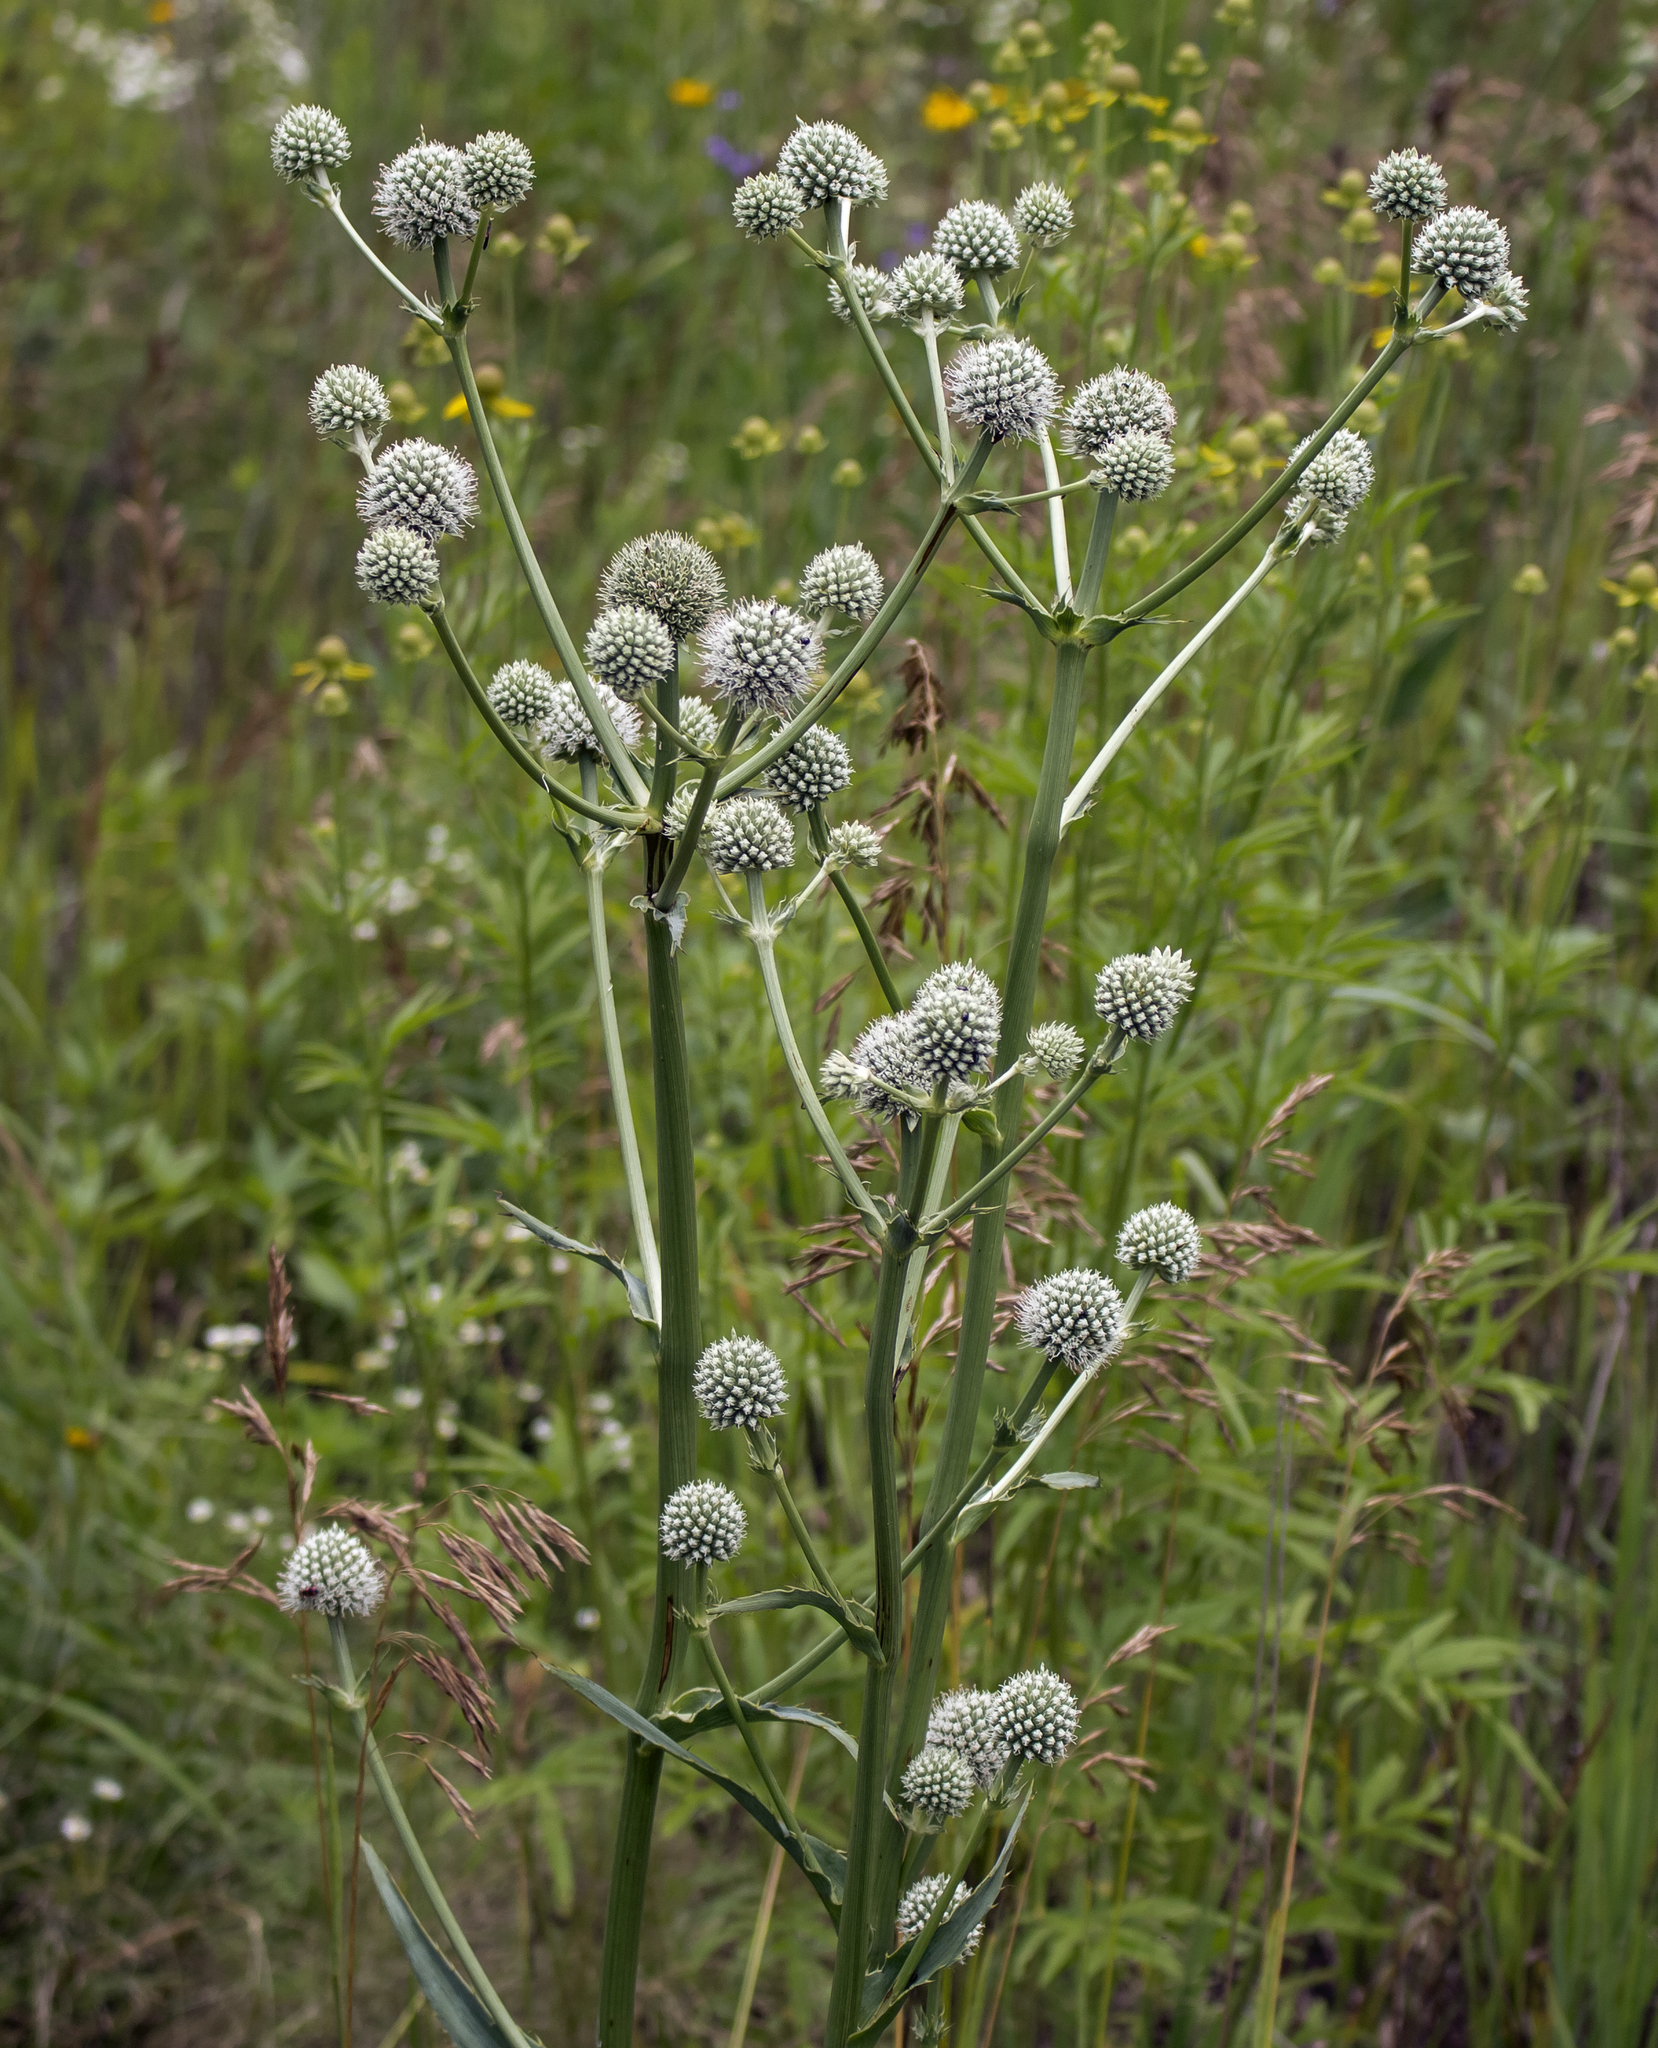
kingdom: Plantae
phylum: Tracheophyta
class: Magnoliopsida
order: Apiales
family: Apiaceae
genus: Eryngium
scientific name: Eryngium yuccifolium
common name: Button eryngo
